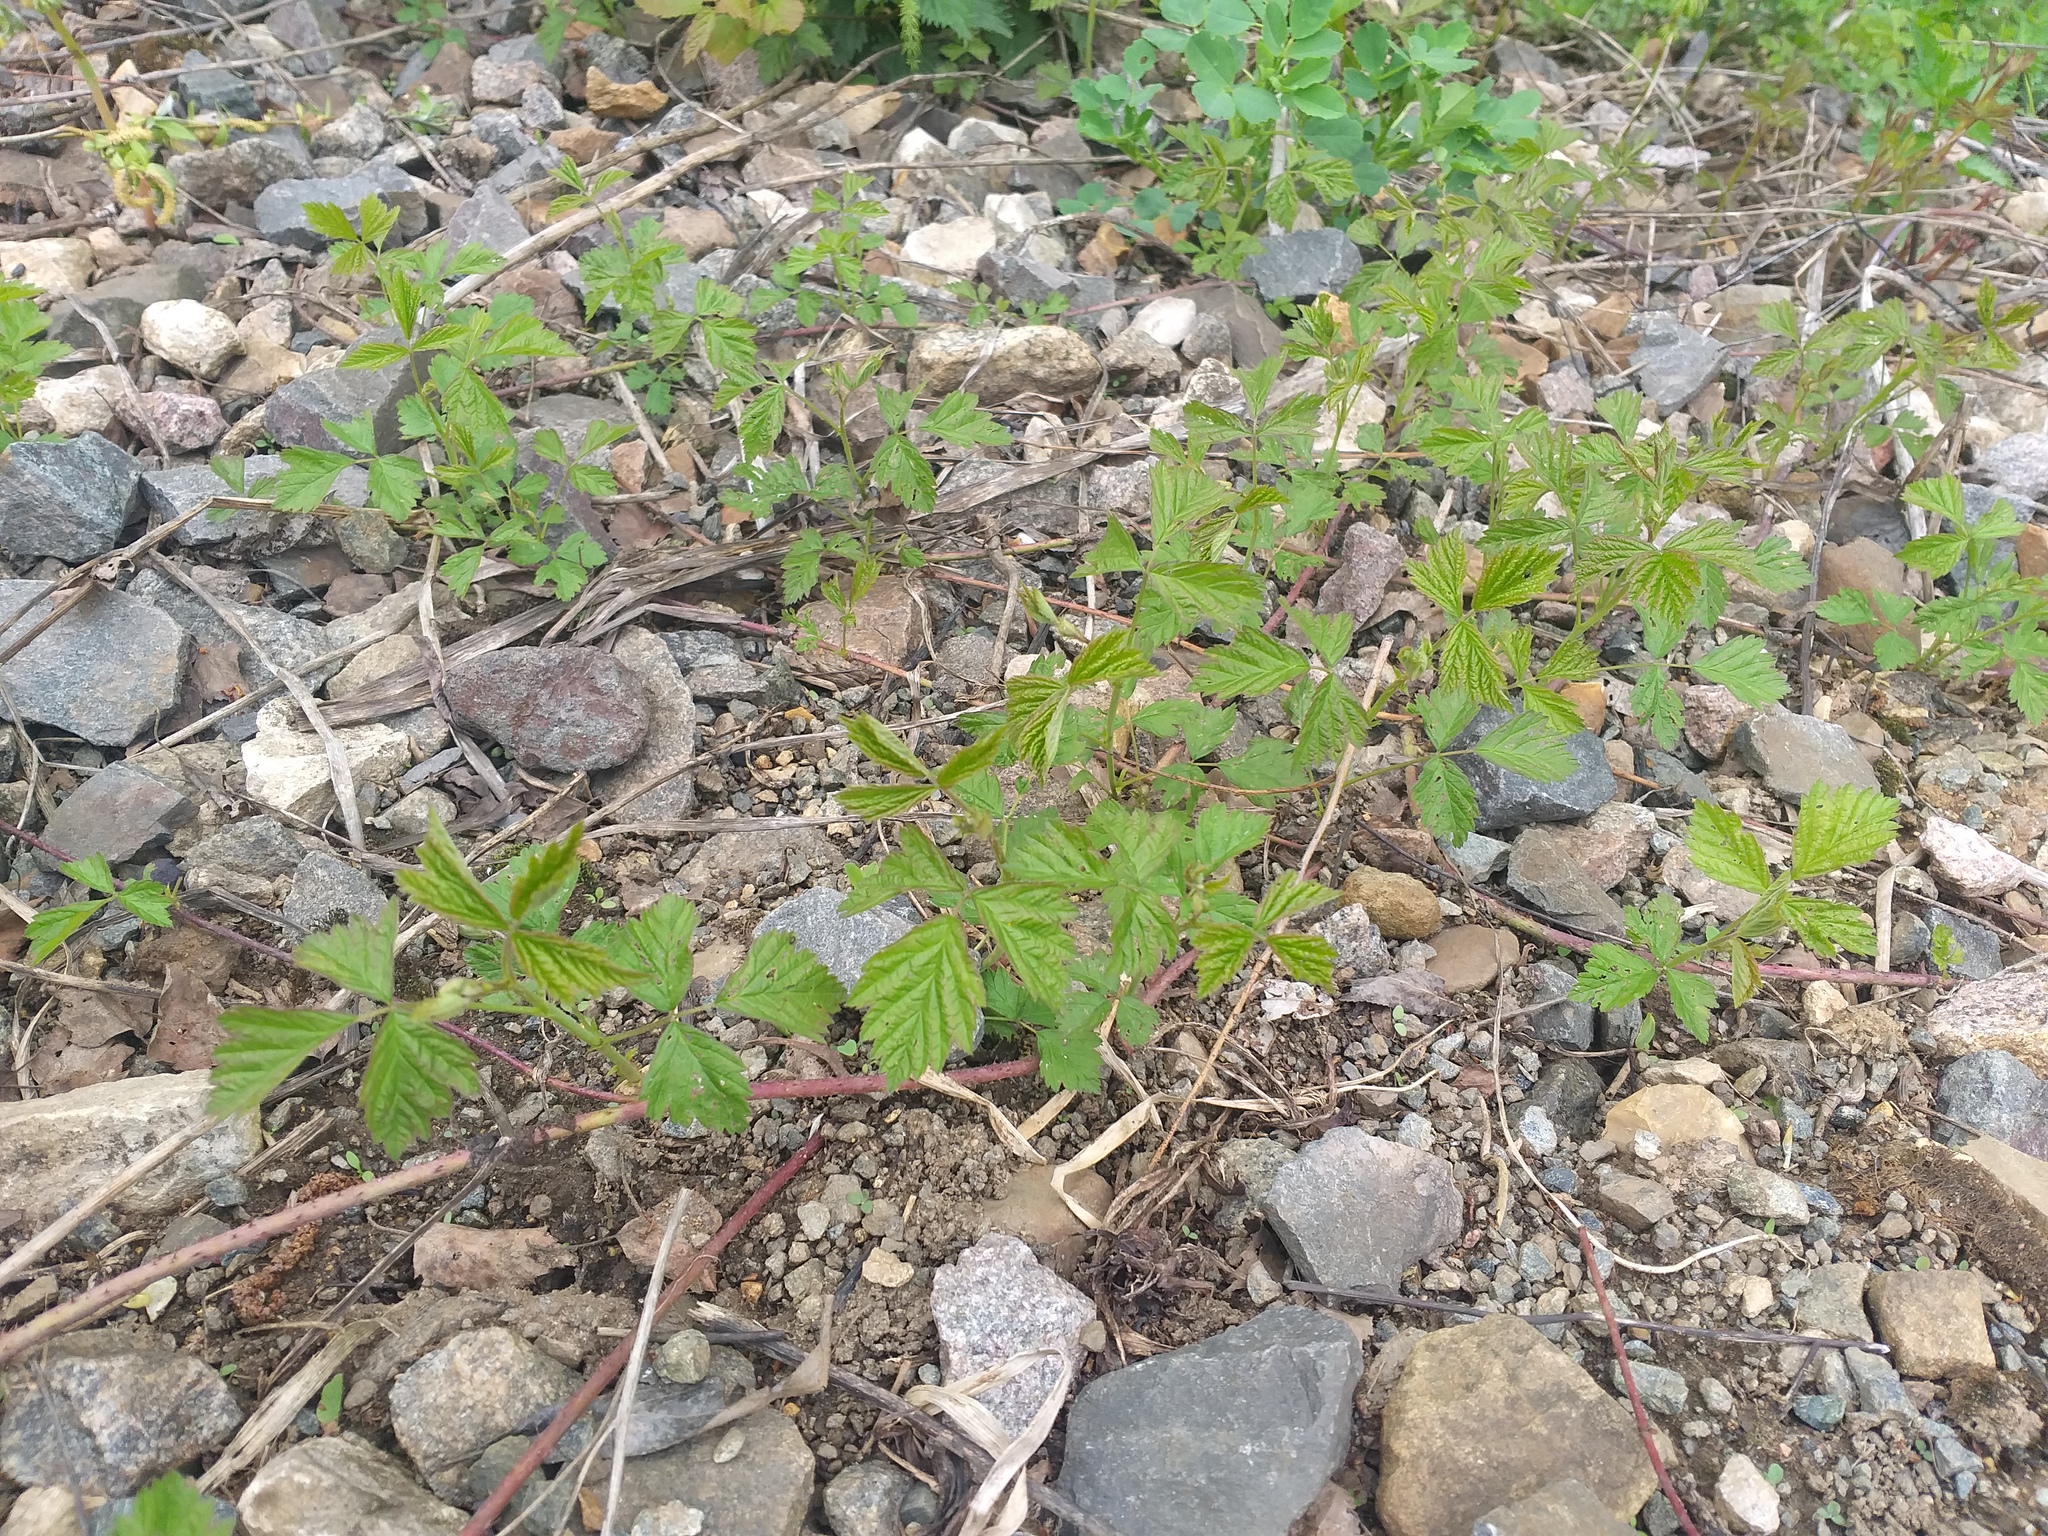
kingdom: Plantae
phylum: Tracheophyta
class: Magnoliopsida
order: Rosales
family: Rosaceae
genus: Rubus
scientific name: Rubus caesius
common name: Dewberry
